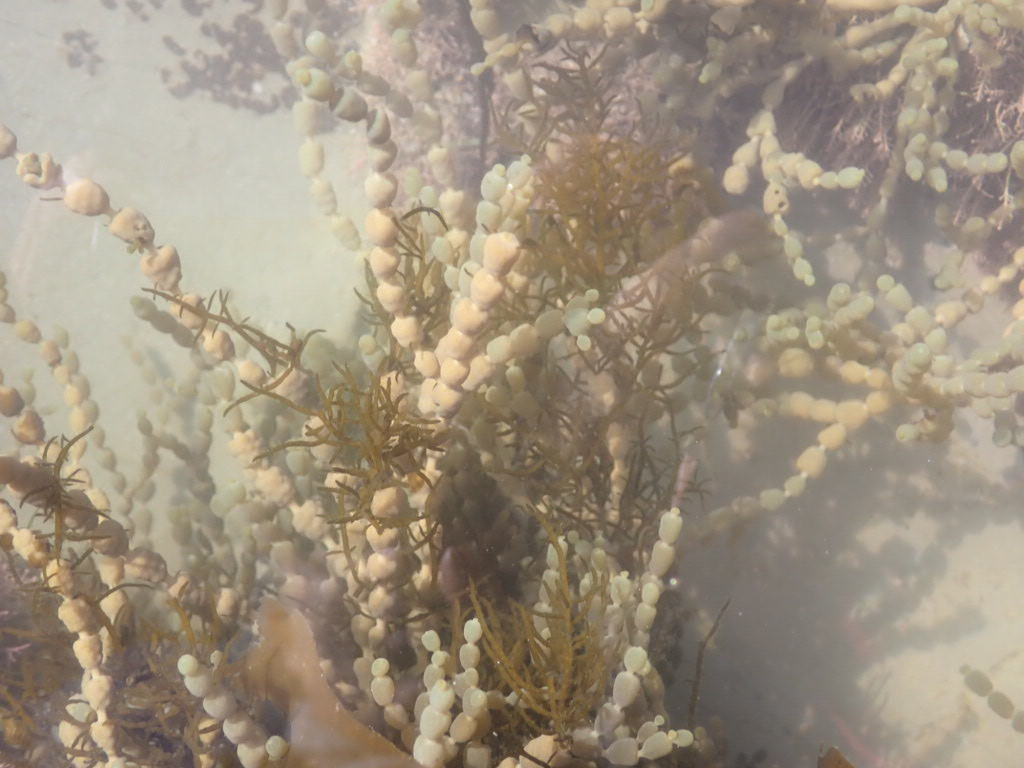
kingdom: Chromista
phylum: Ochrophyta
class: Phaeophyceae
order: Fucales
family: Notheiaceae
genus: Notheia
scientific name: Notheia anomala
